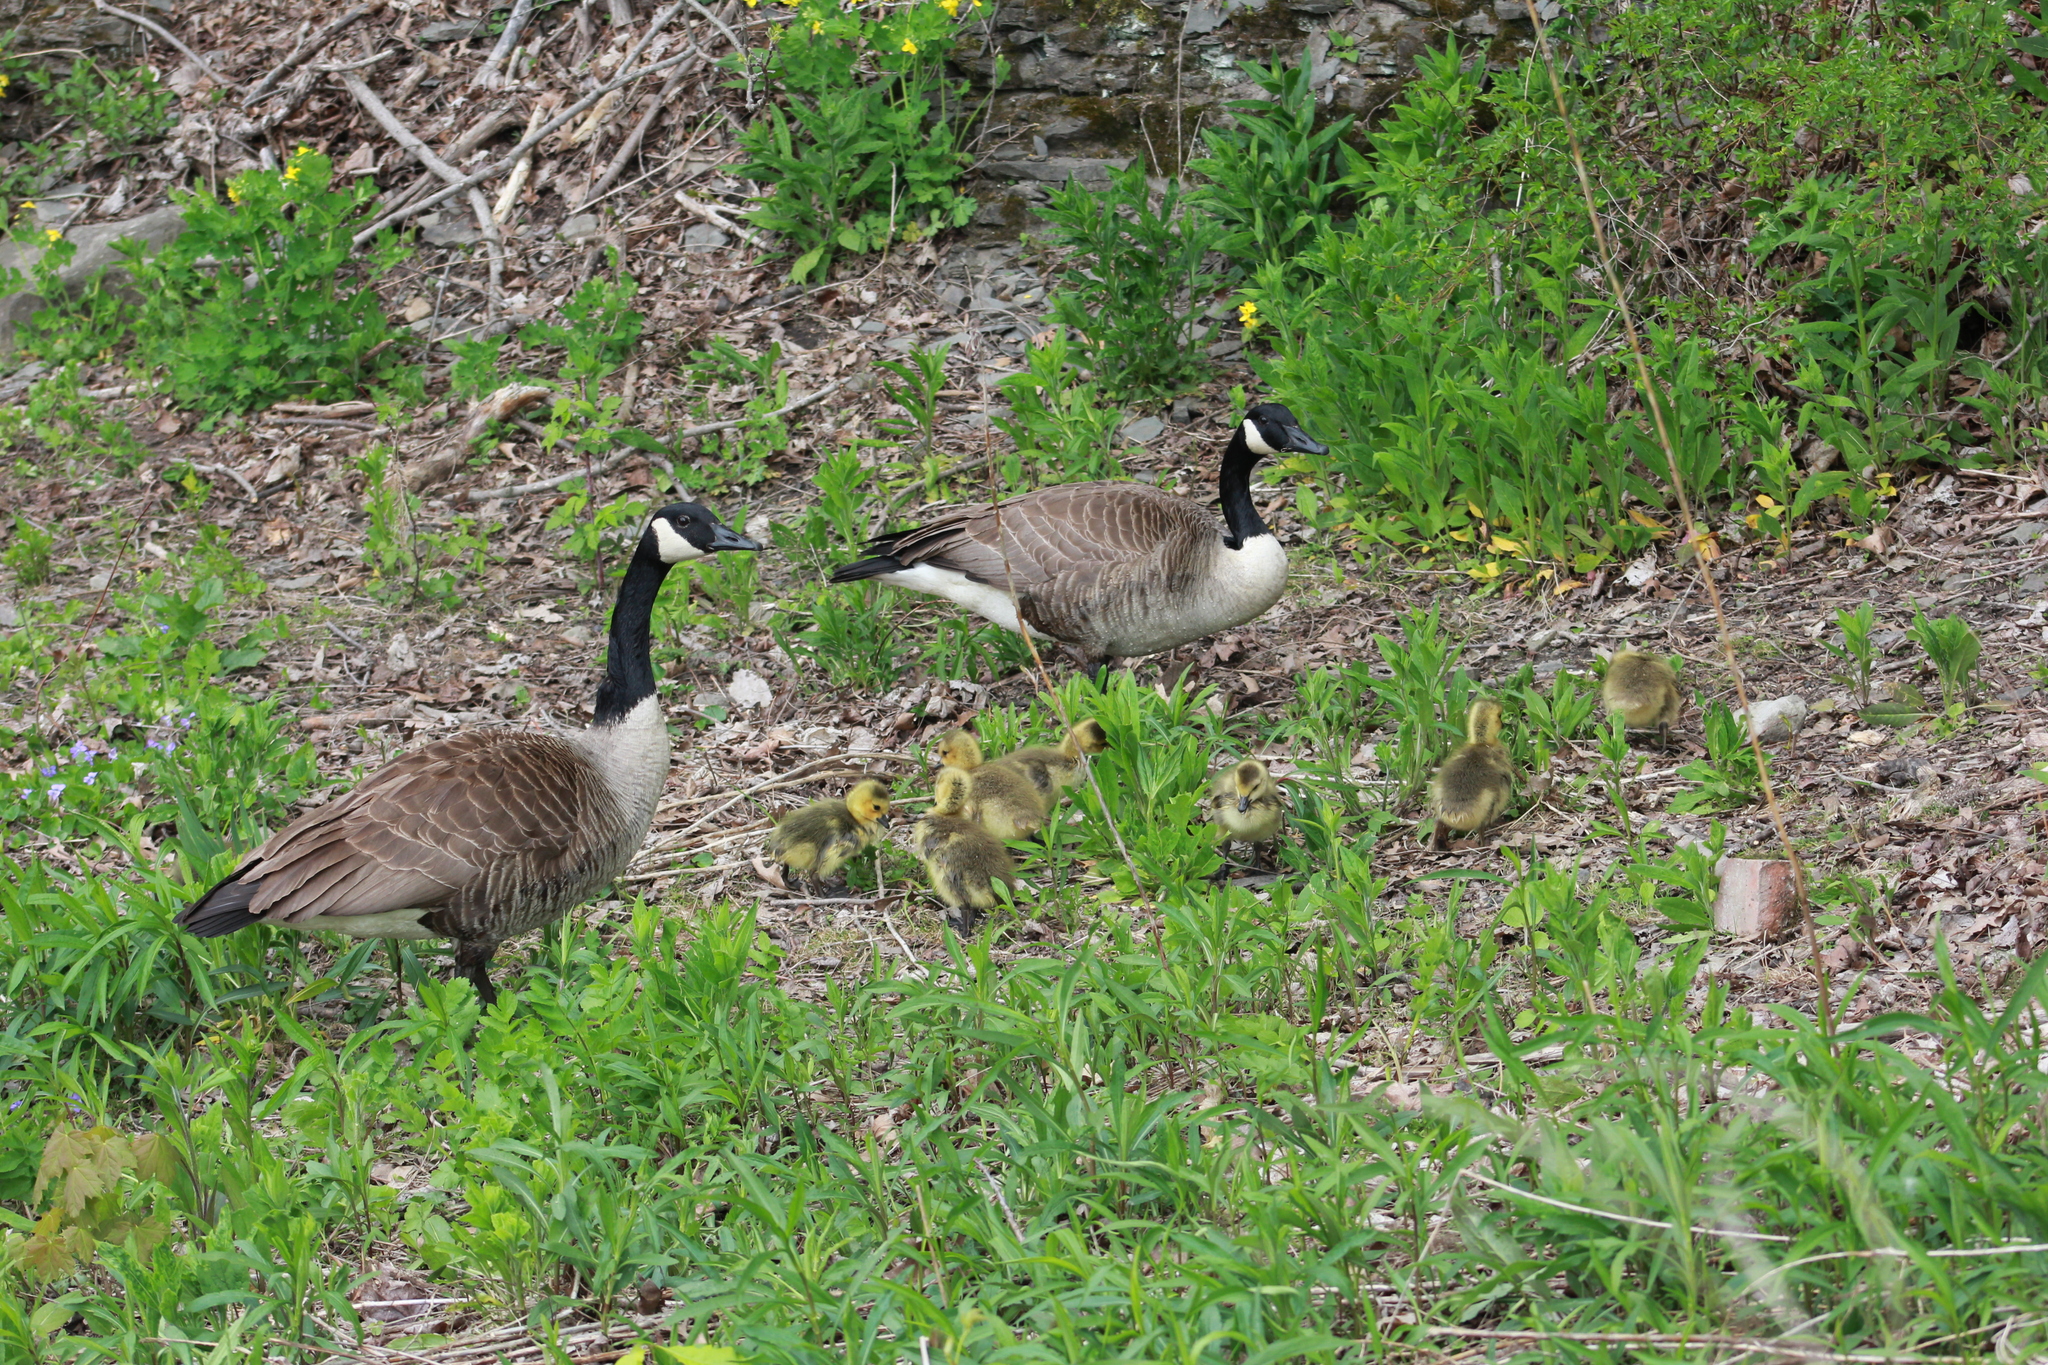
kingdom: Animalia
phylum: Chordata
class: Aves
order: Anseriformes
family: Anatidae
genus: Branta
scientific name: Branta canadensis
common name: Canada goose
